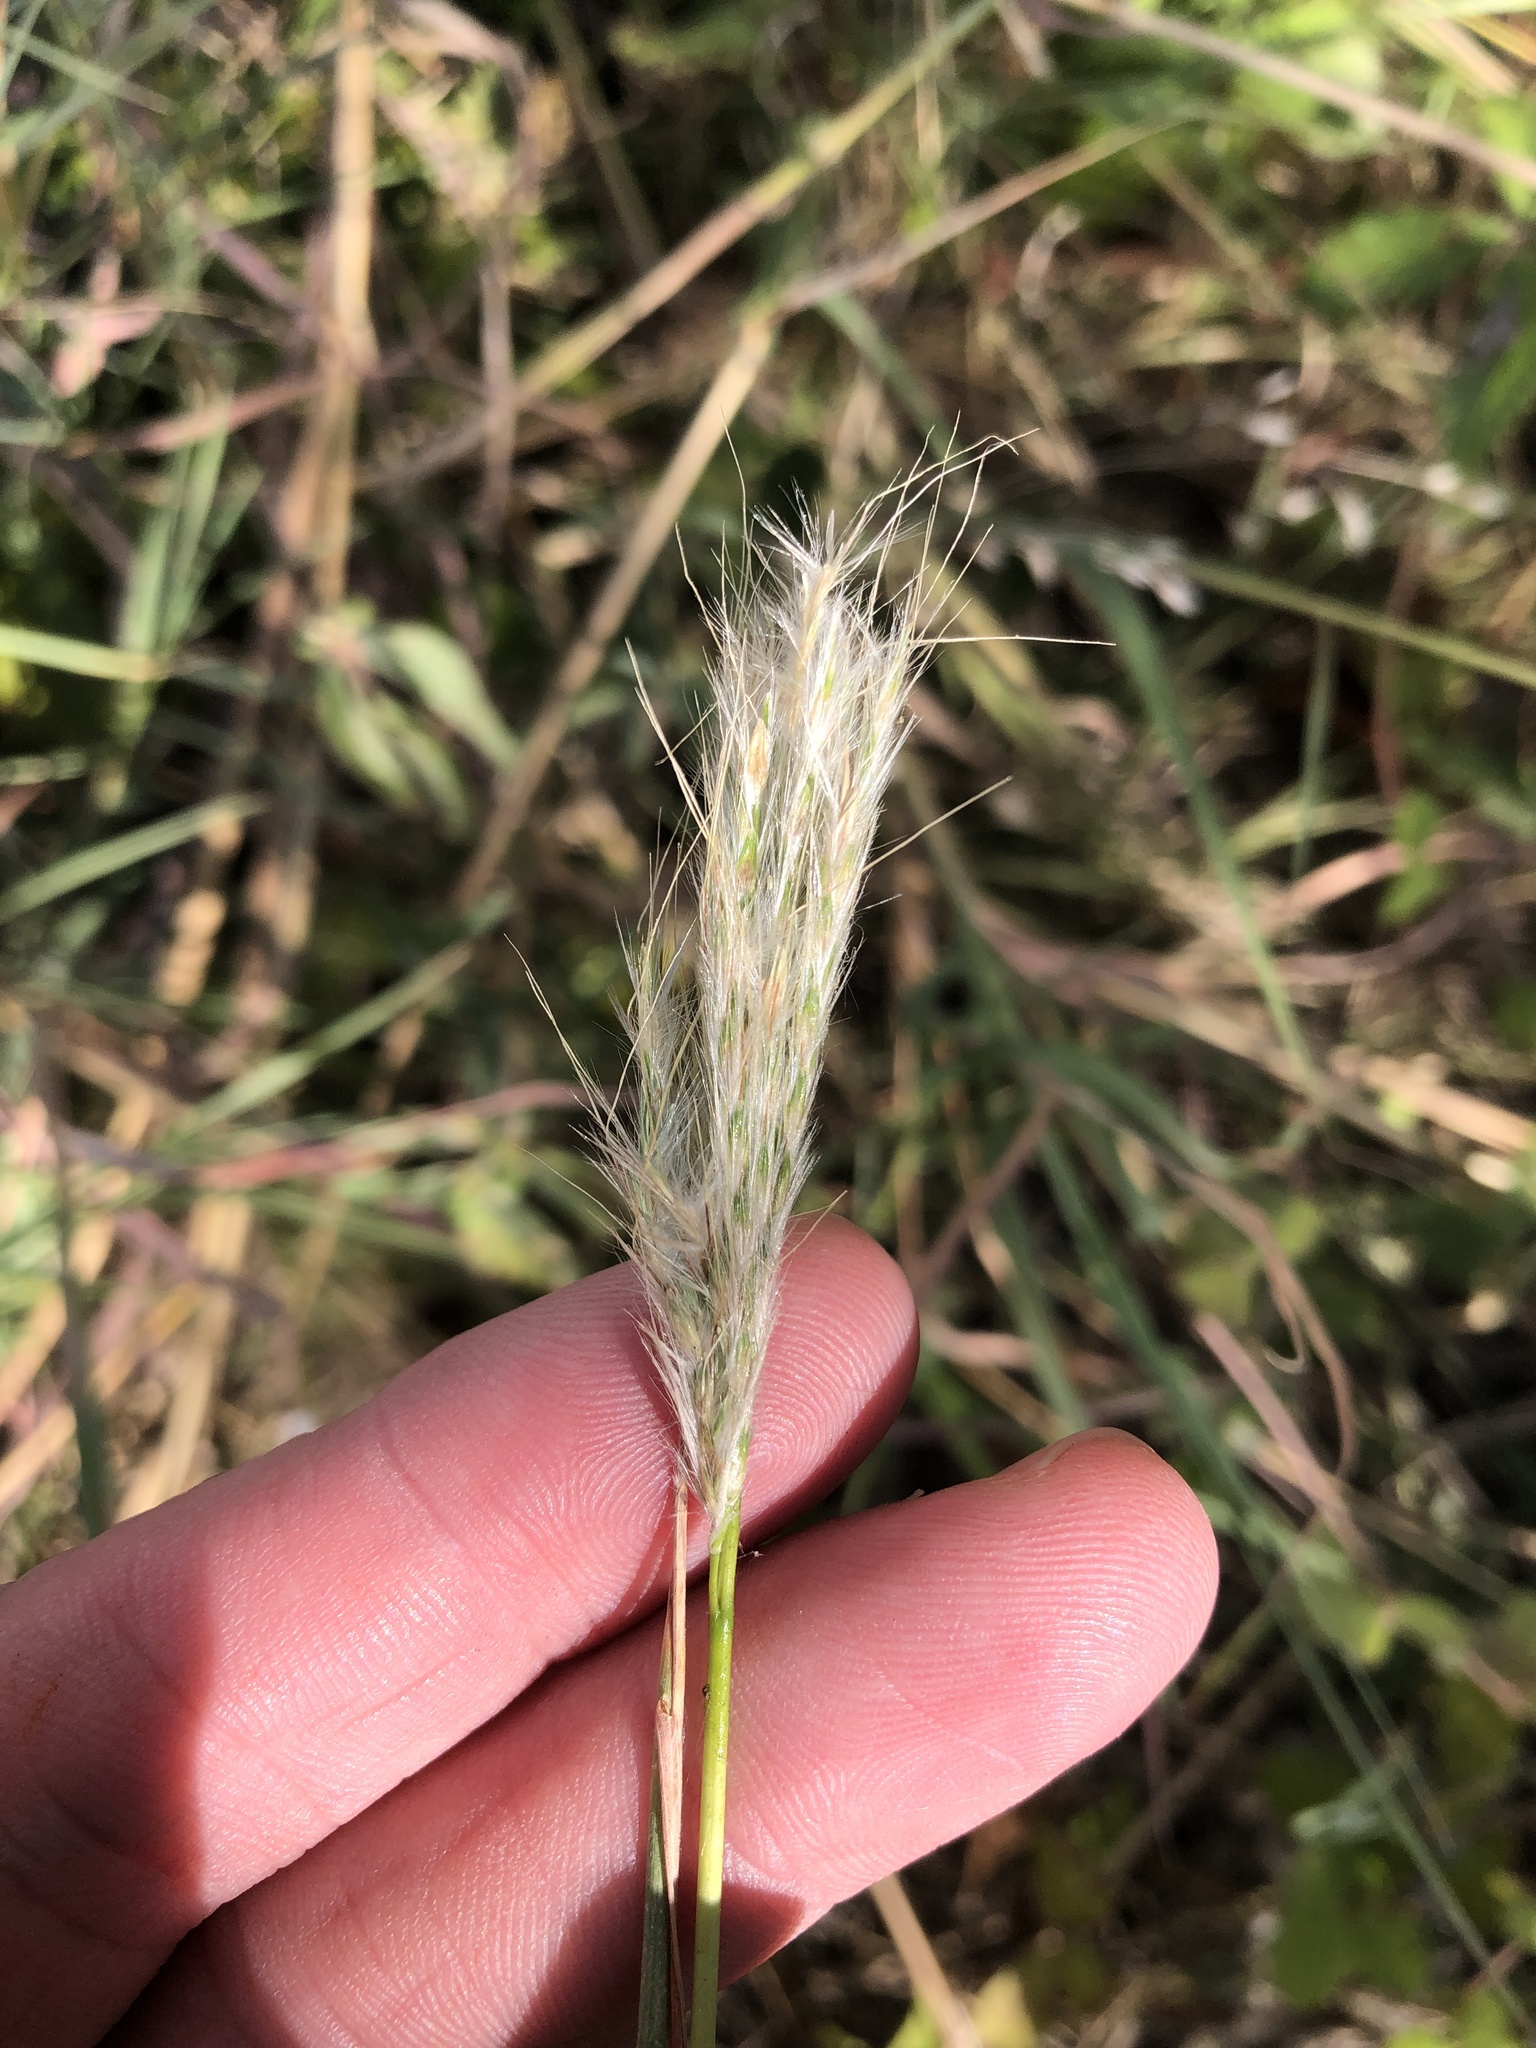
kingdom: Plantae
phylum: Tracheophyta
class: Liliopsida
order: Poales
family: Poaceae
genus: Bothriochloa
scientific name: Bothriochloa torreyana
